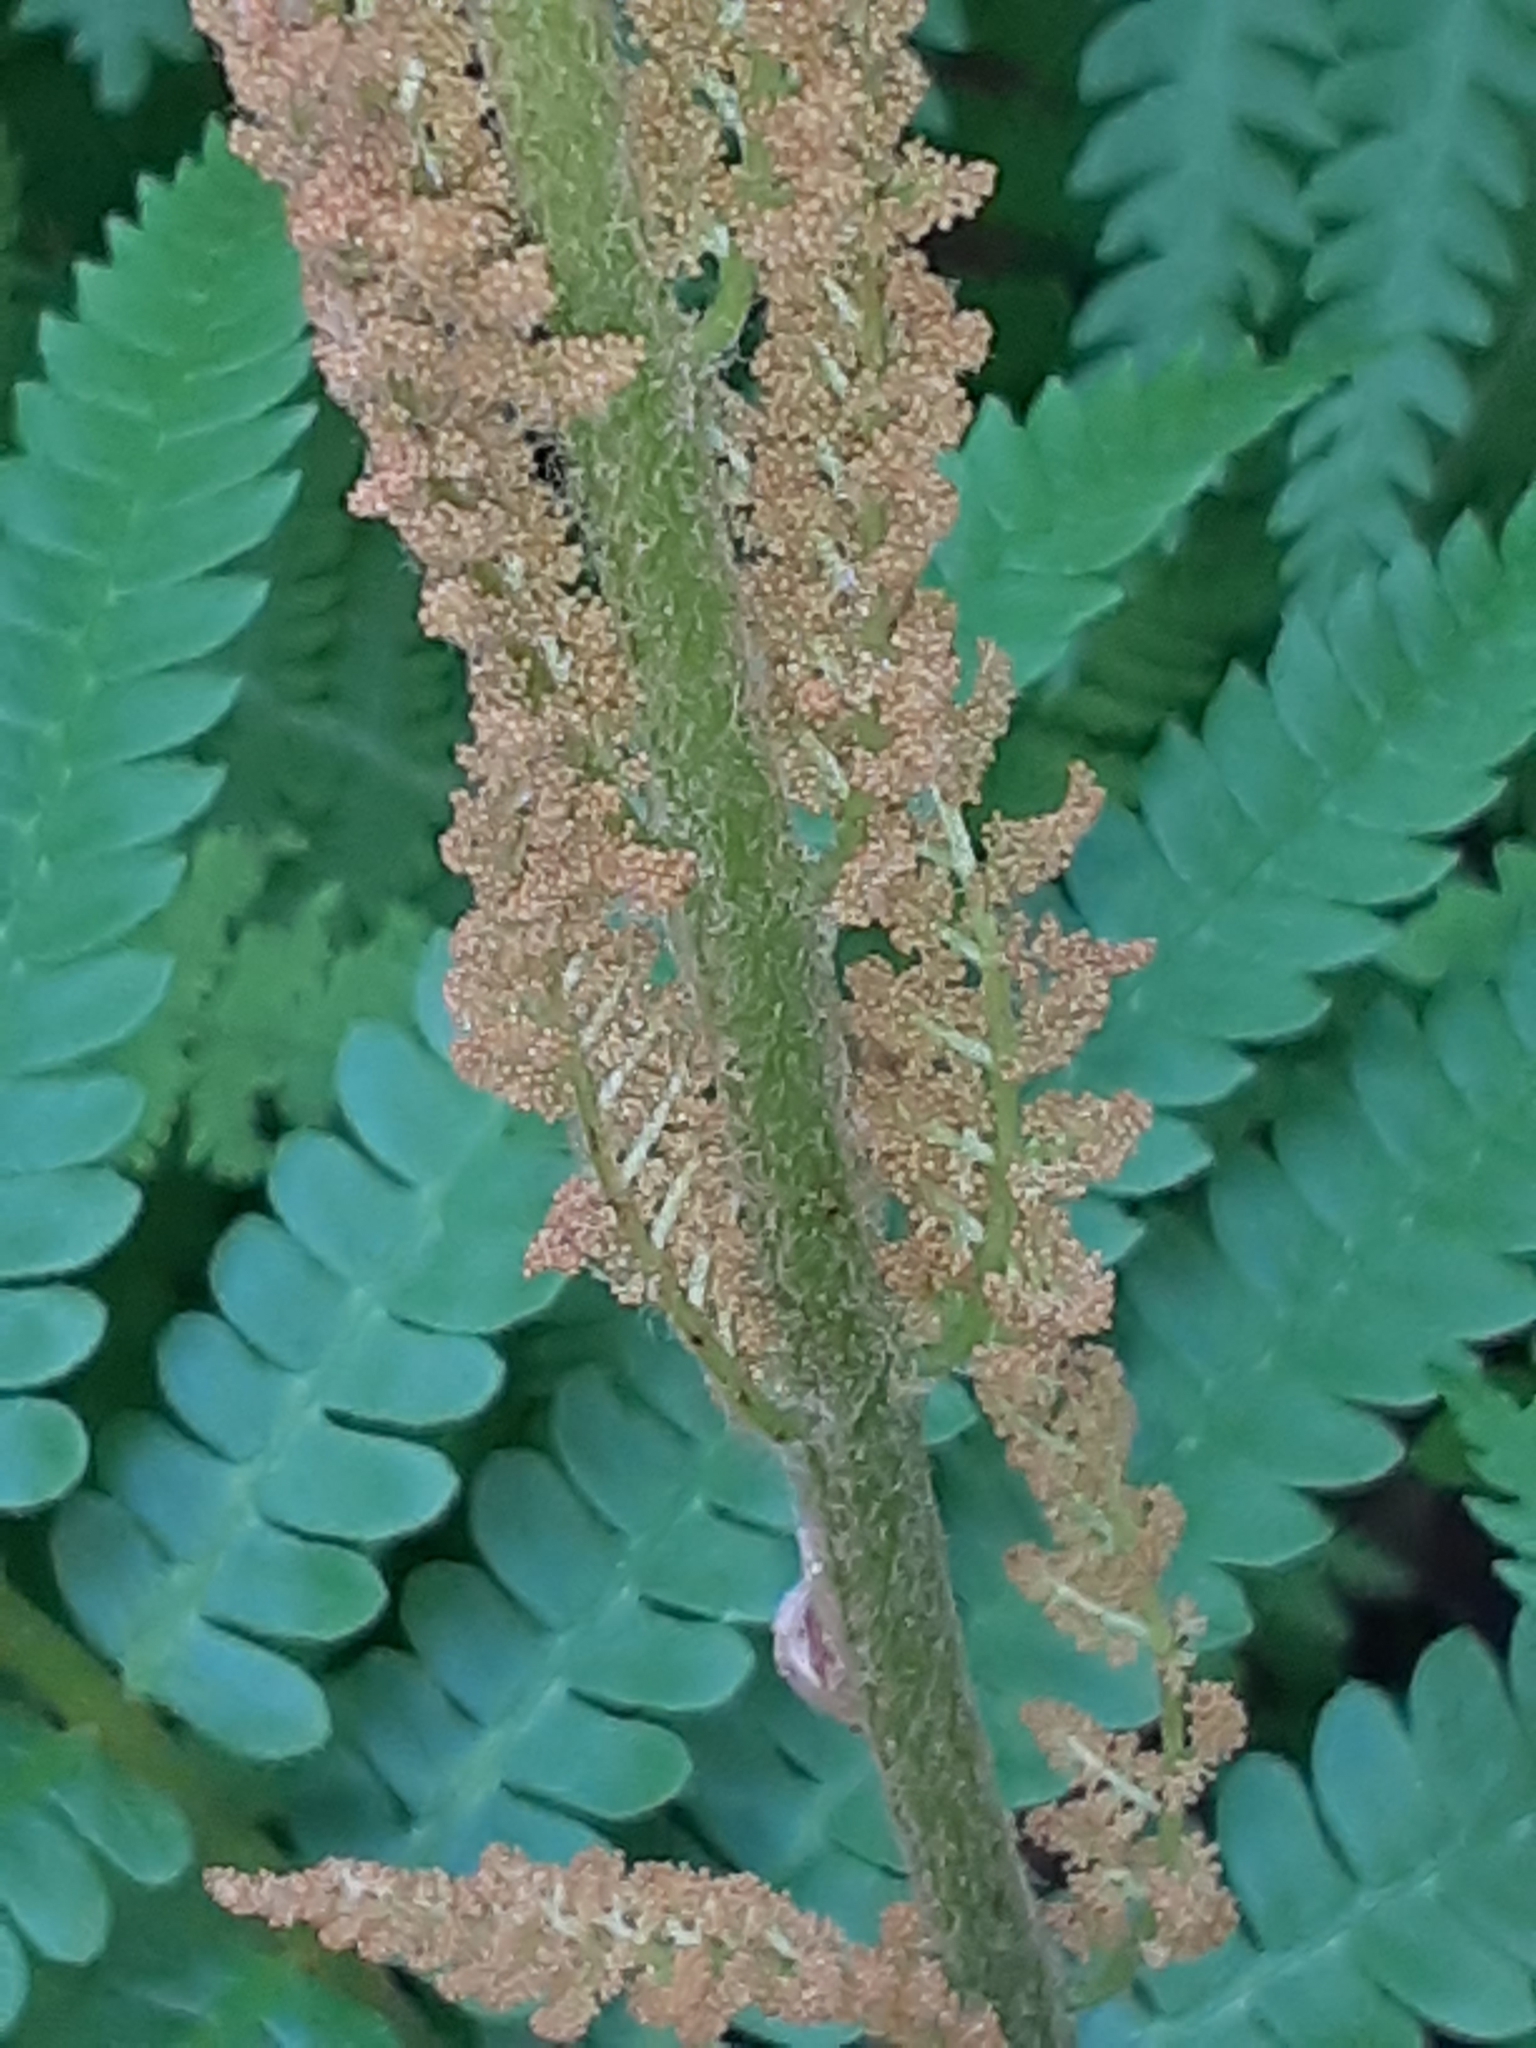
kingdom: Plantae
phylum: Tracheophyta
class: Polypodiopsida
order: Osmundales
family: Osmundaceae
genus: Osmundastrum
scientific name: Osmundastrum cinnamomeum
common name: Cinnamon fern
